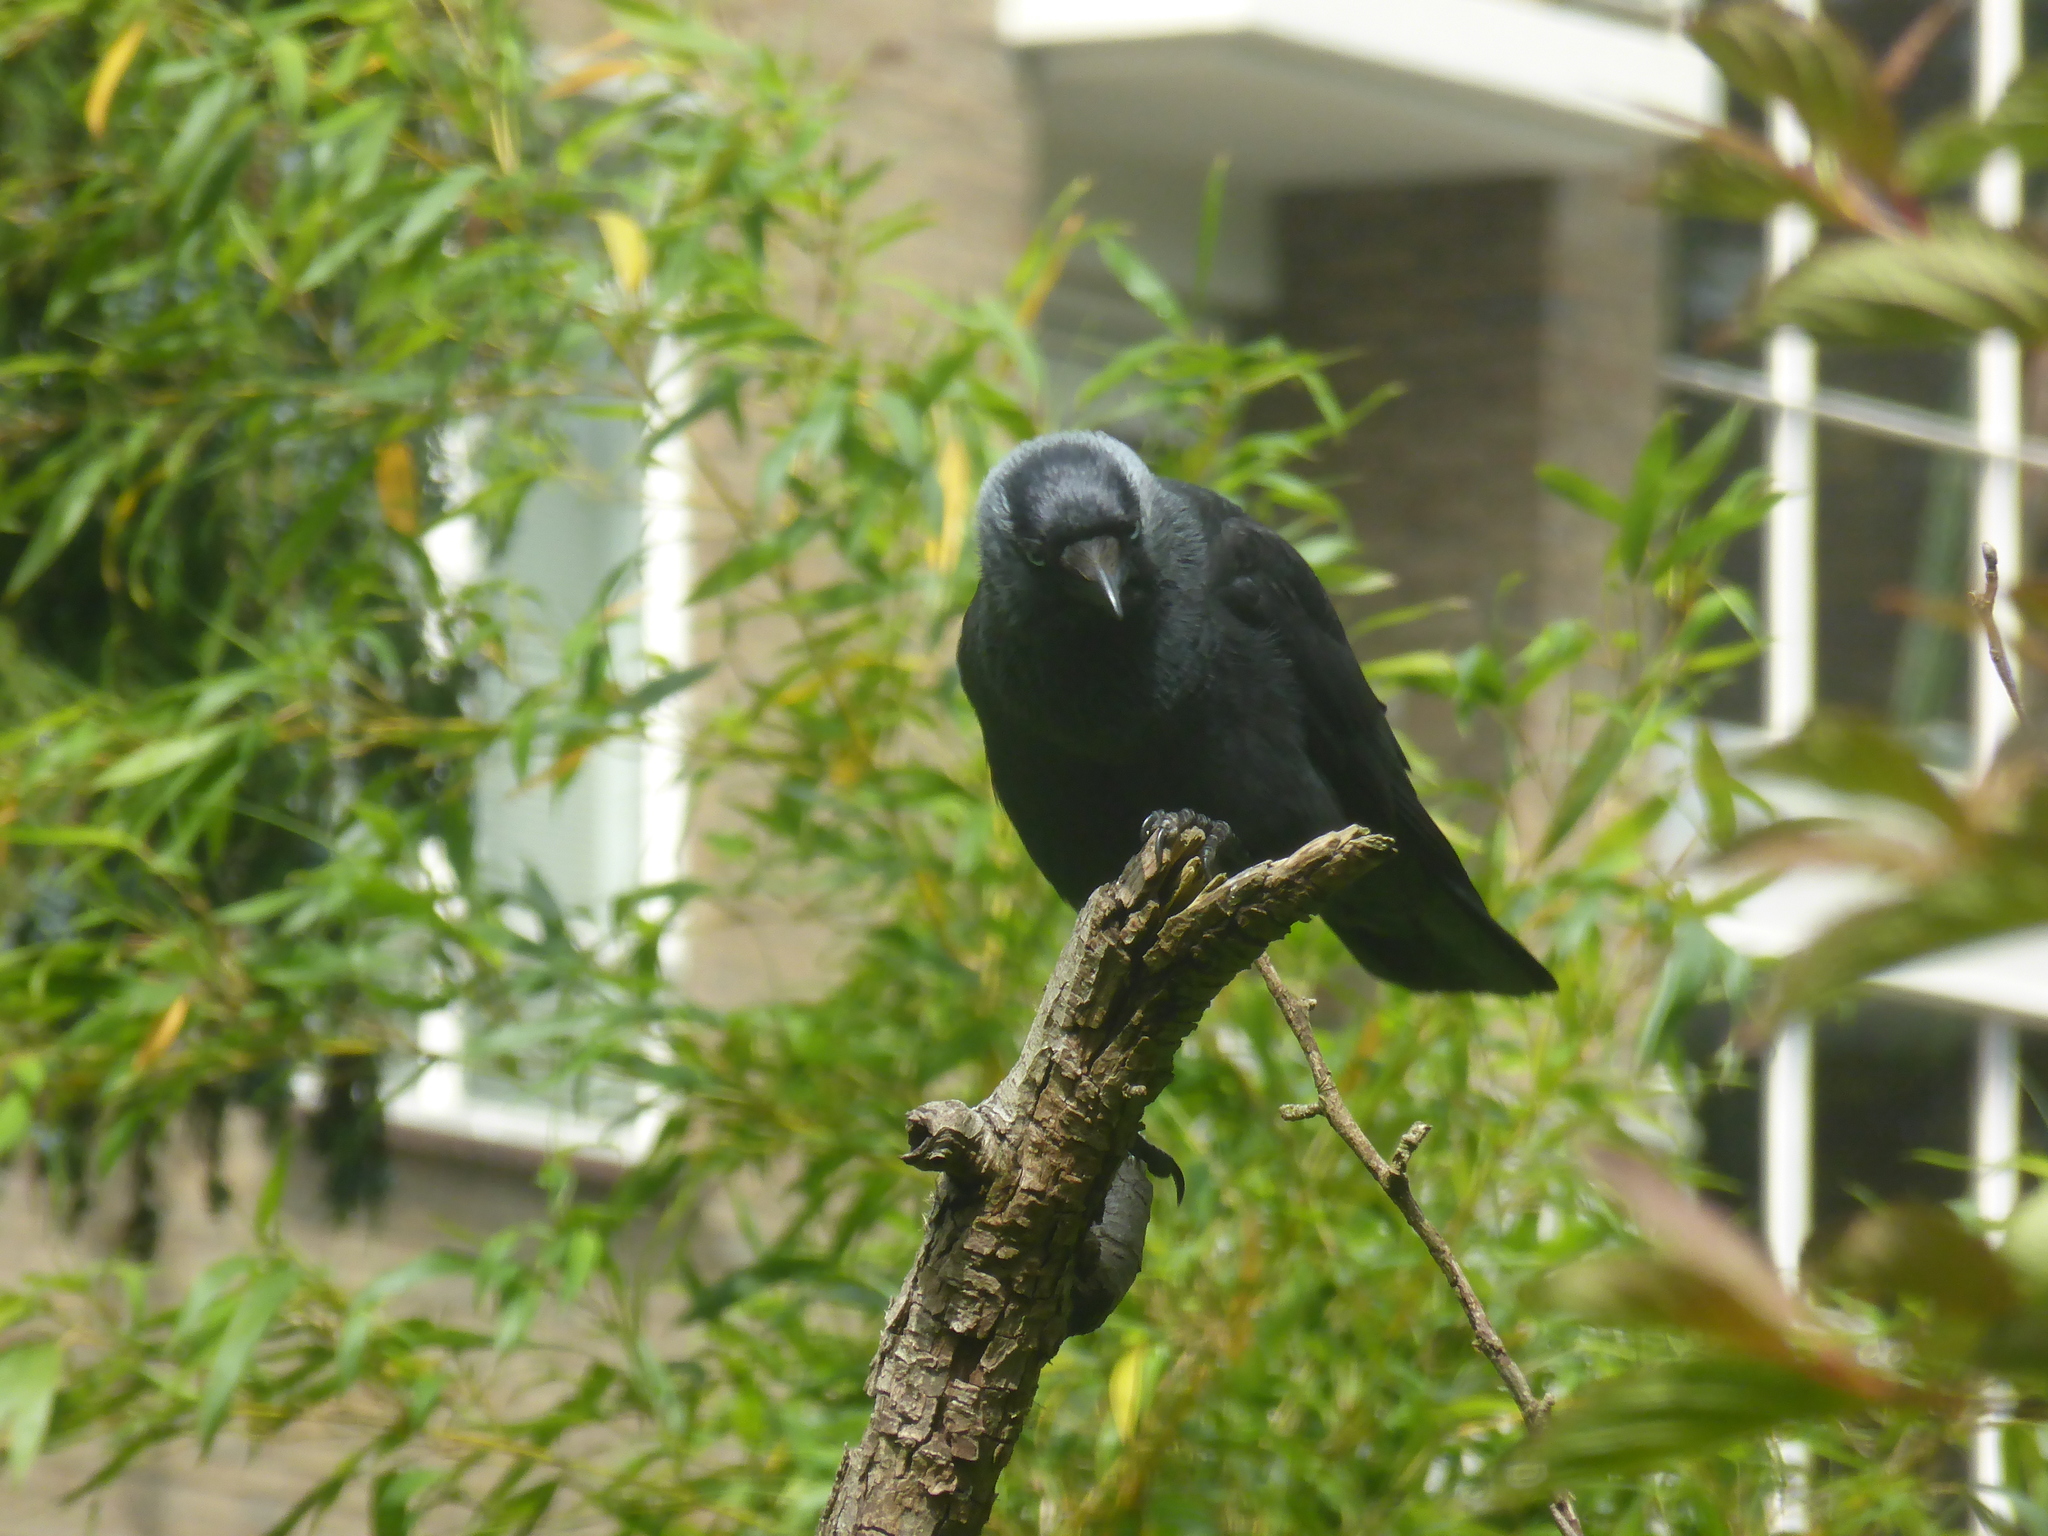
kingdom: Animalia
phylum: Chordata
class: Aves
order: Passeriformes
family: Corvidae
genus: Coloeus
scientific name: Coloeus monedula
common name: Western jackdaw
